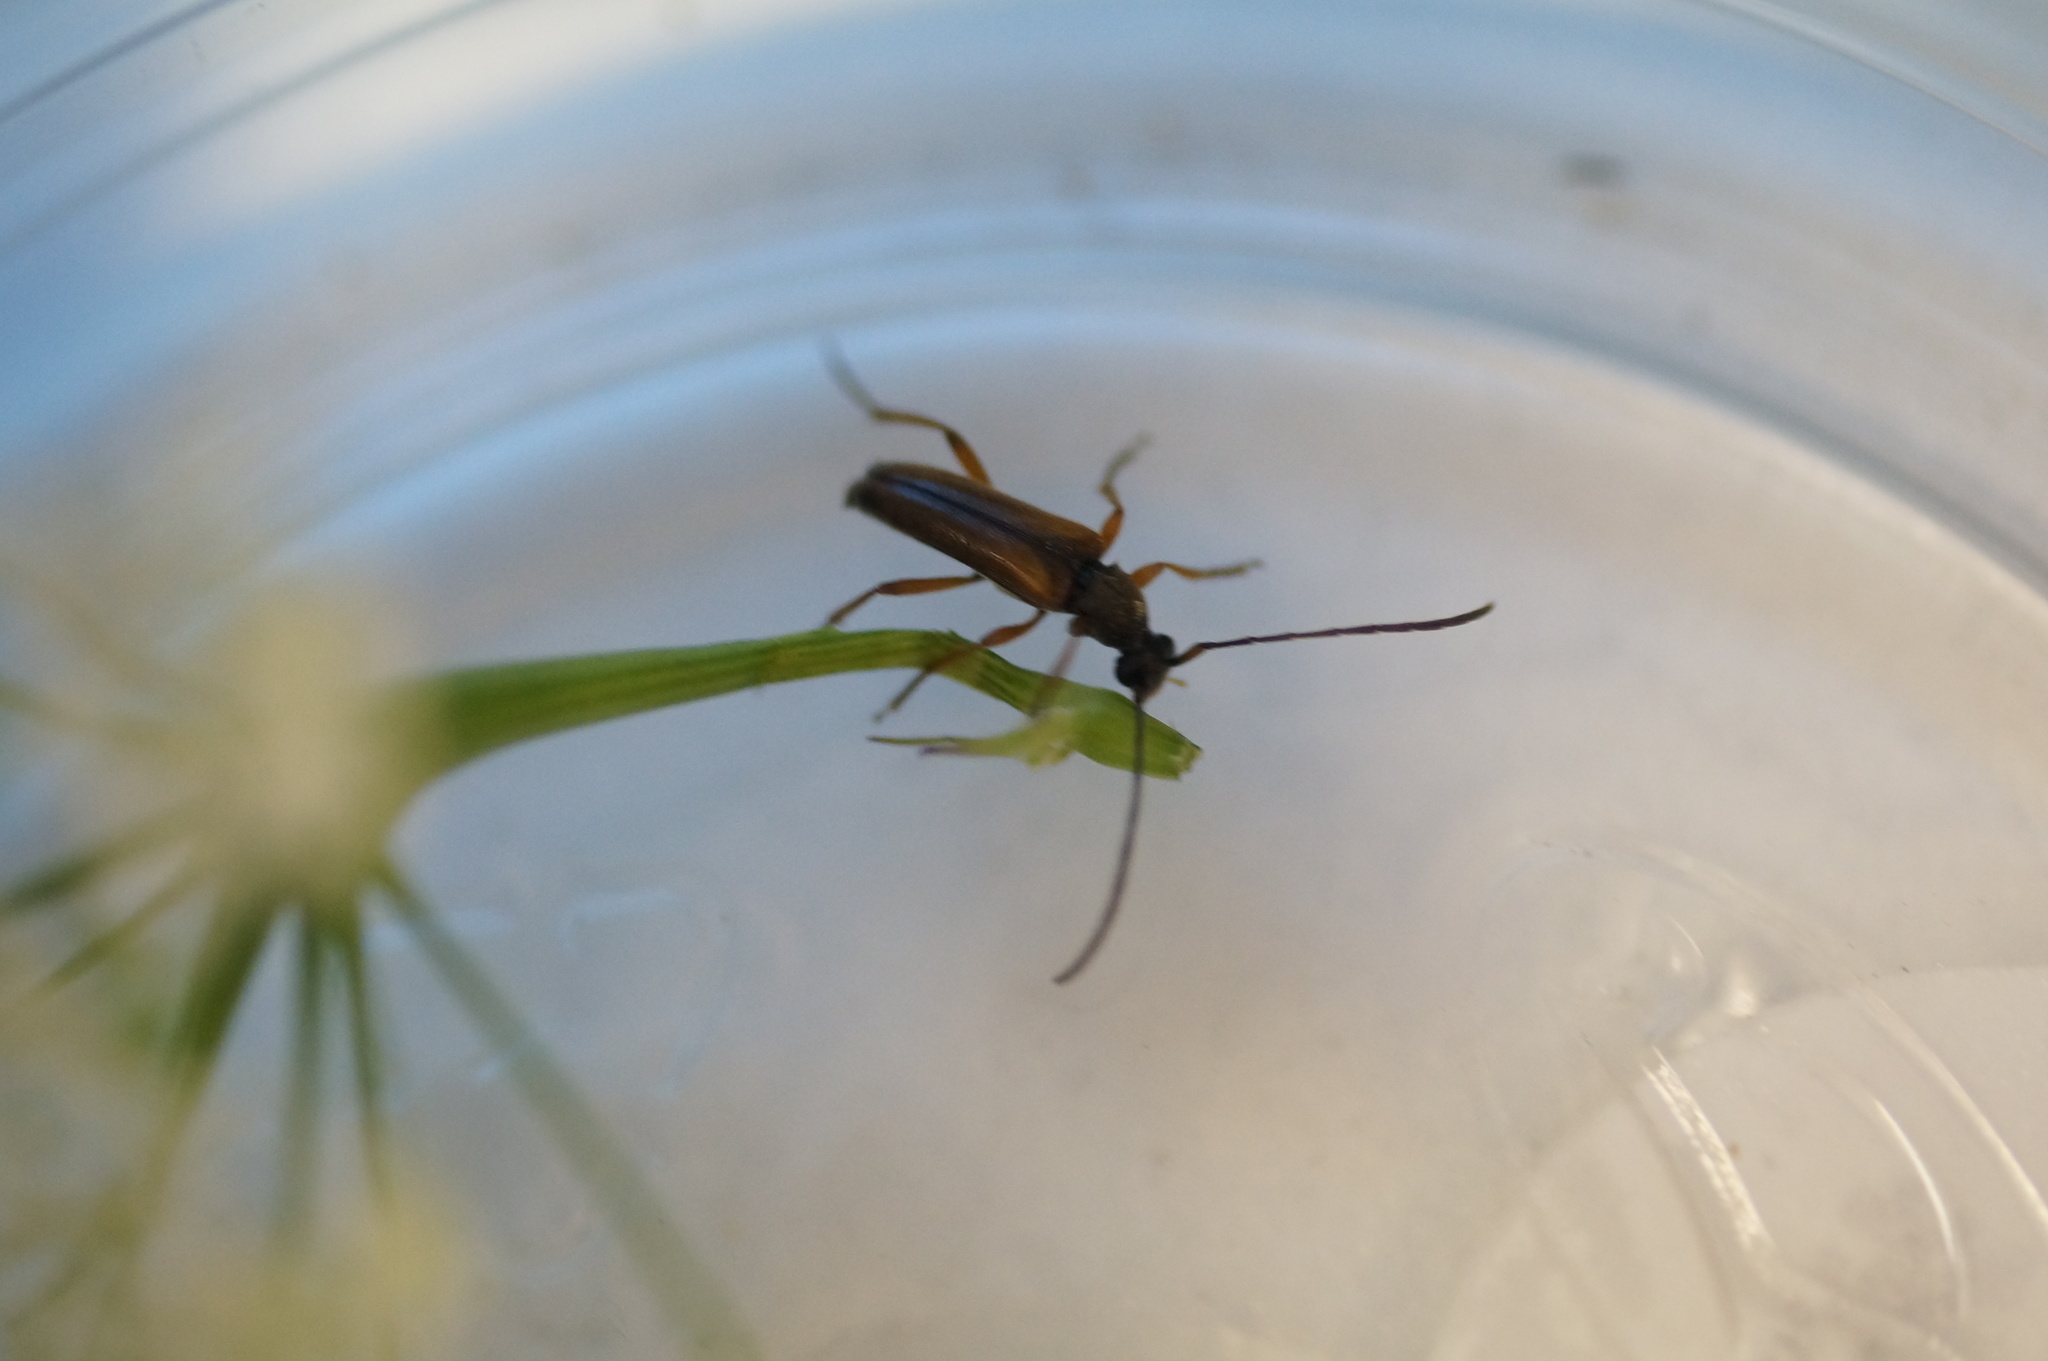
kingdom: Animalia
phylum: Arthropoda
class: Insecta
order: Coleoptera
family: Cerambycidae
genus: Alosterna
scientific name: Alosterna tabacicolor
